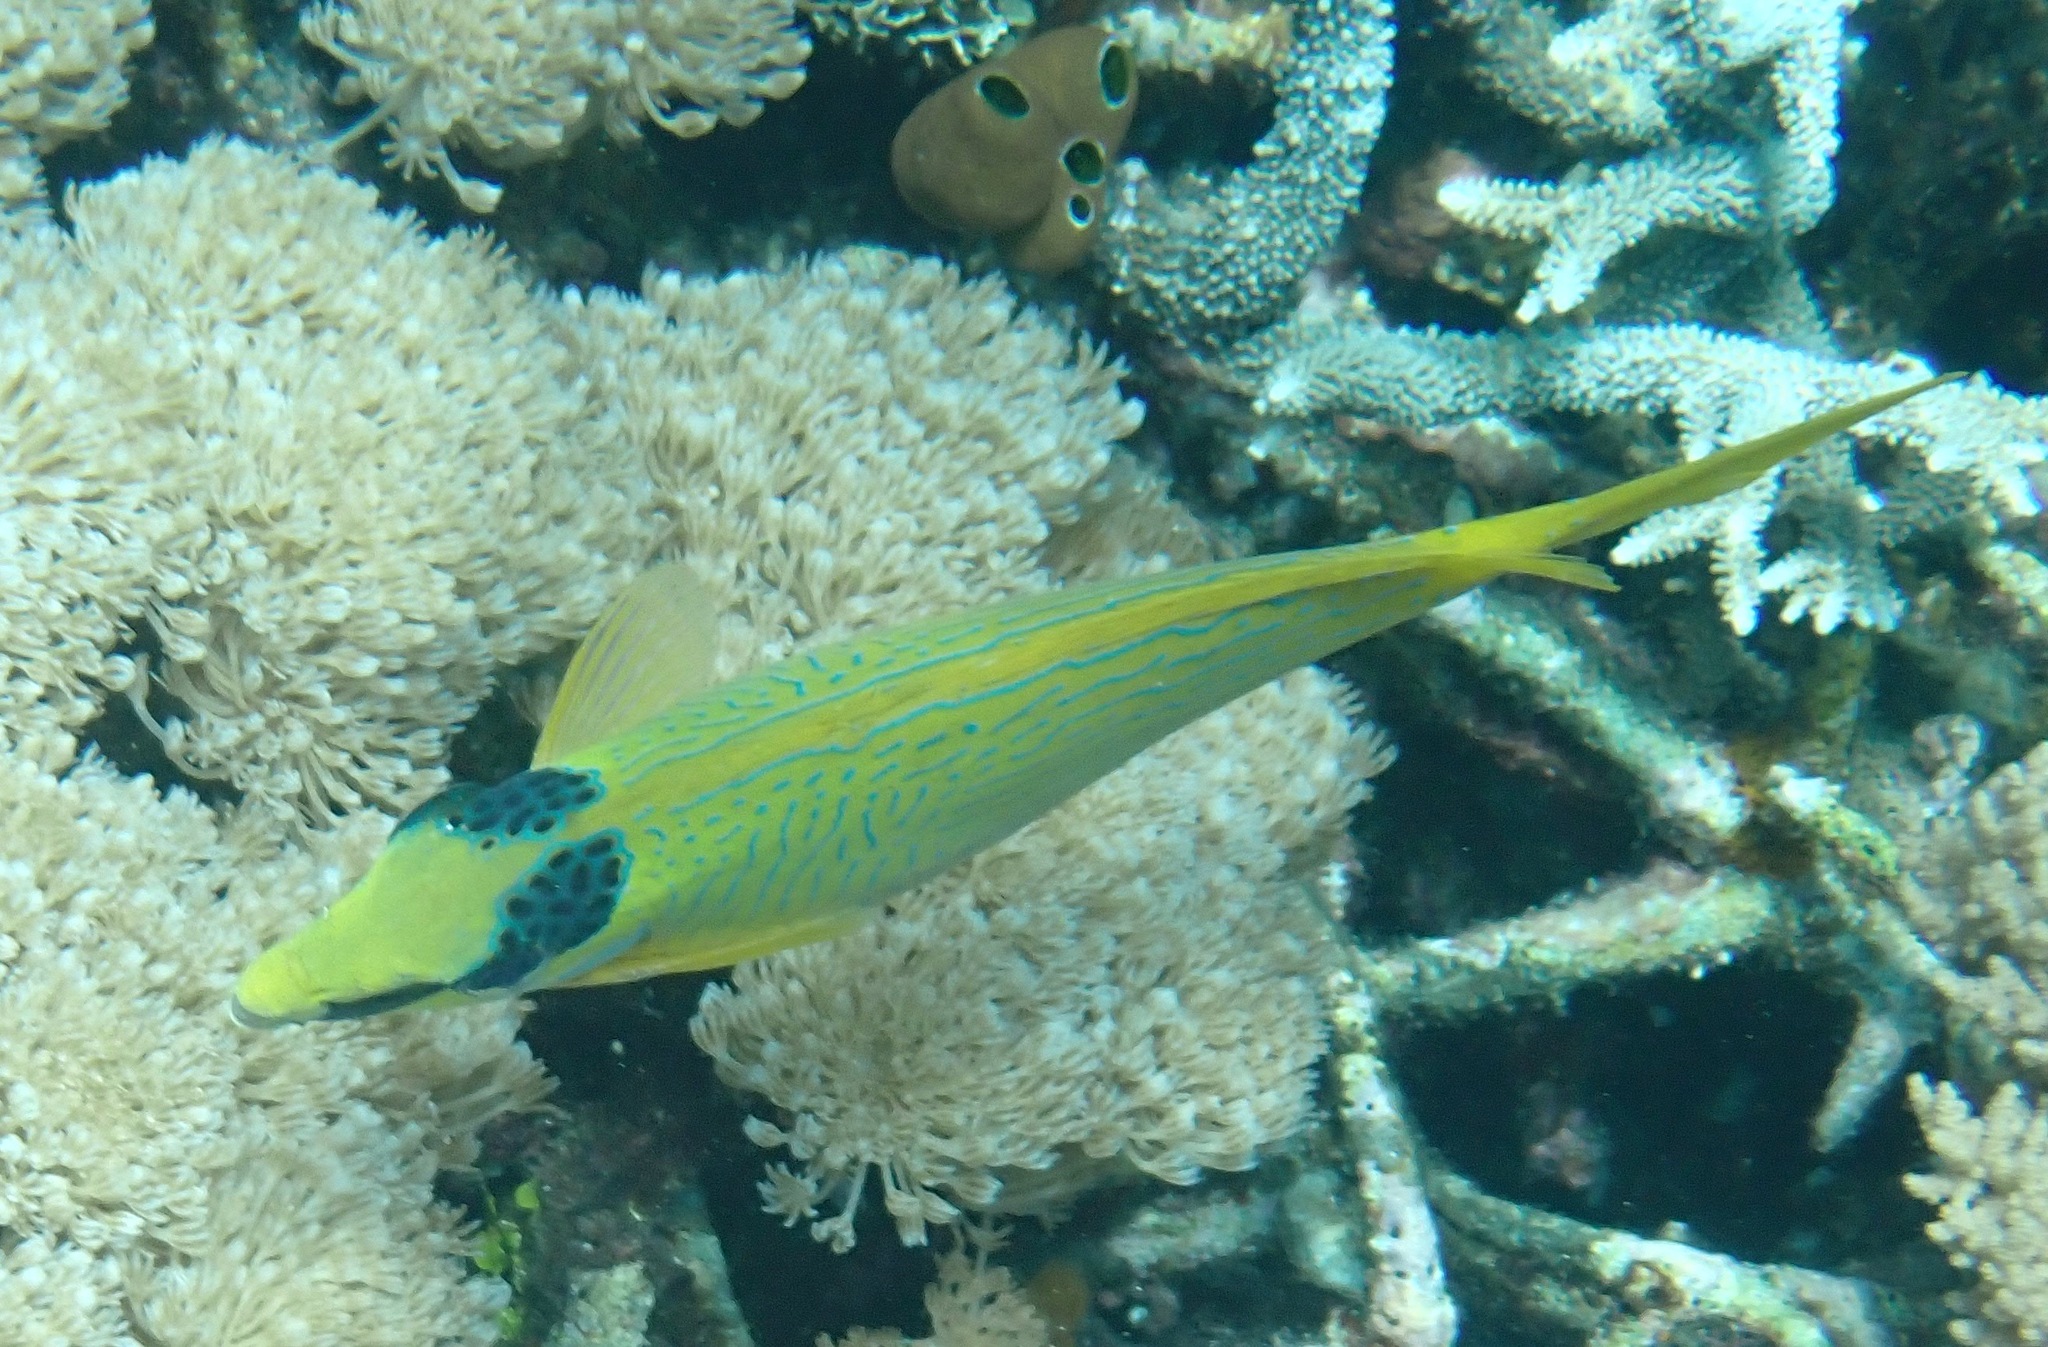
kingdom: Animalia
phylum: Chordata
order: Perciformes
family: Siganidae
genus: Siganus
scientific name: Siganus puellus
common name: Masked rabbitfish
